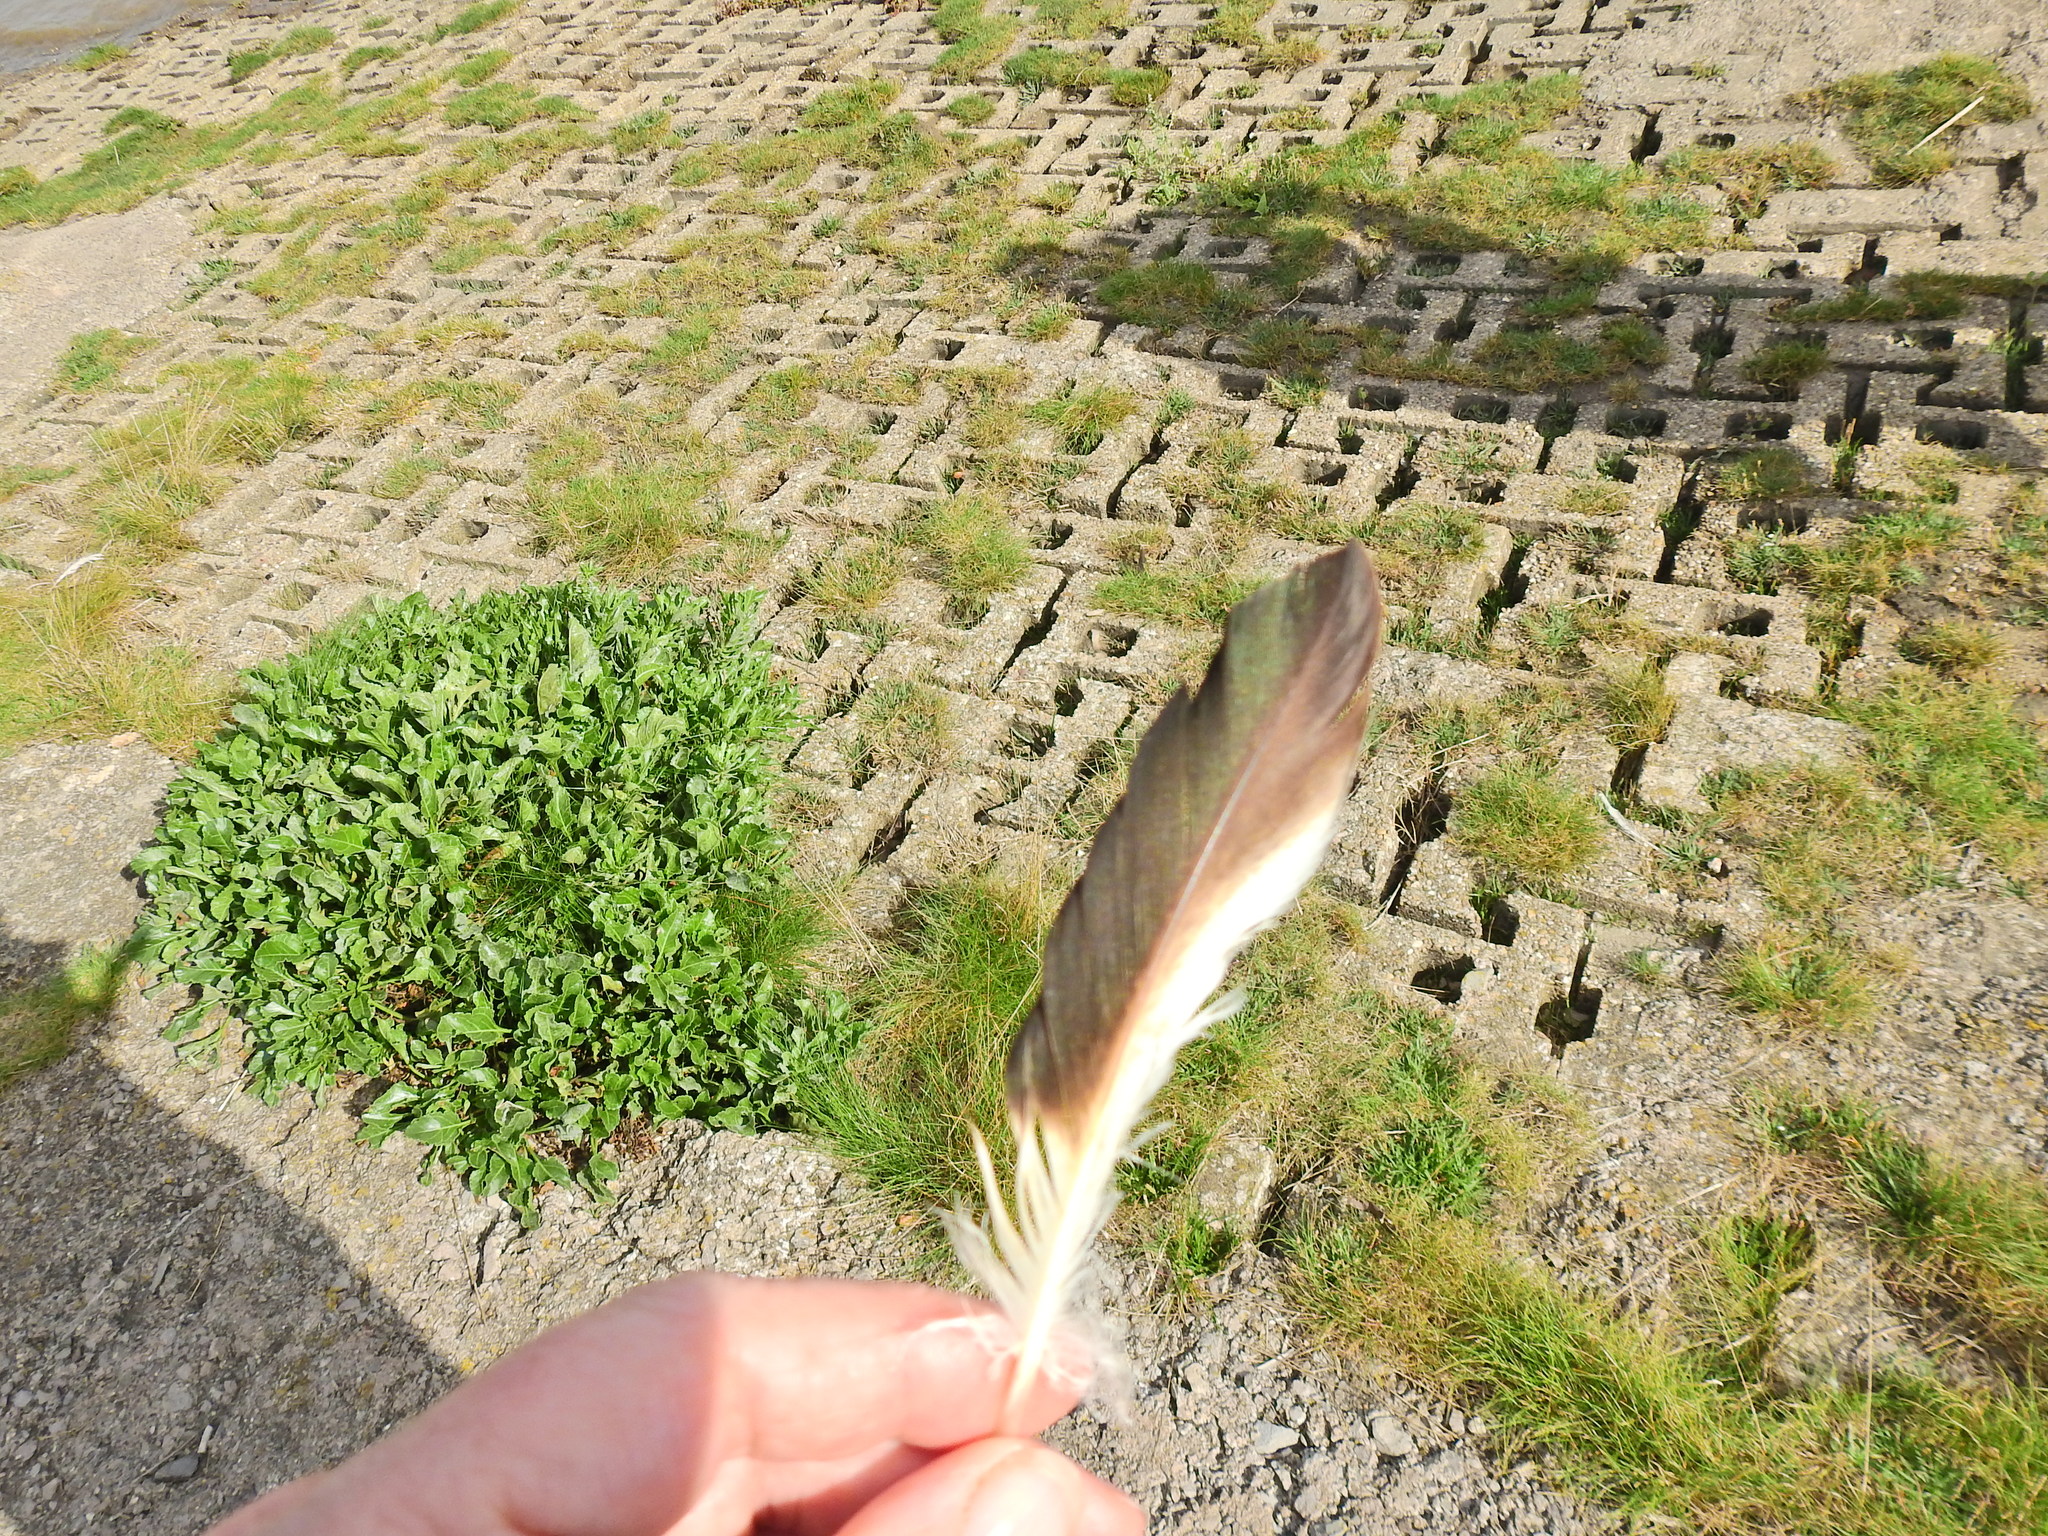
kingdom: Animalia
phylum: Chordata
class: Aves
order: Anseriformes
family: Anatidae
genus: Tadorna
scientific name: Tadorna tadorna
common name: Common shelduck
